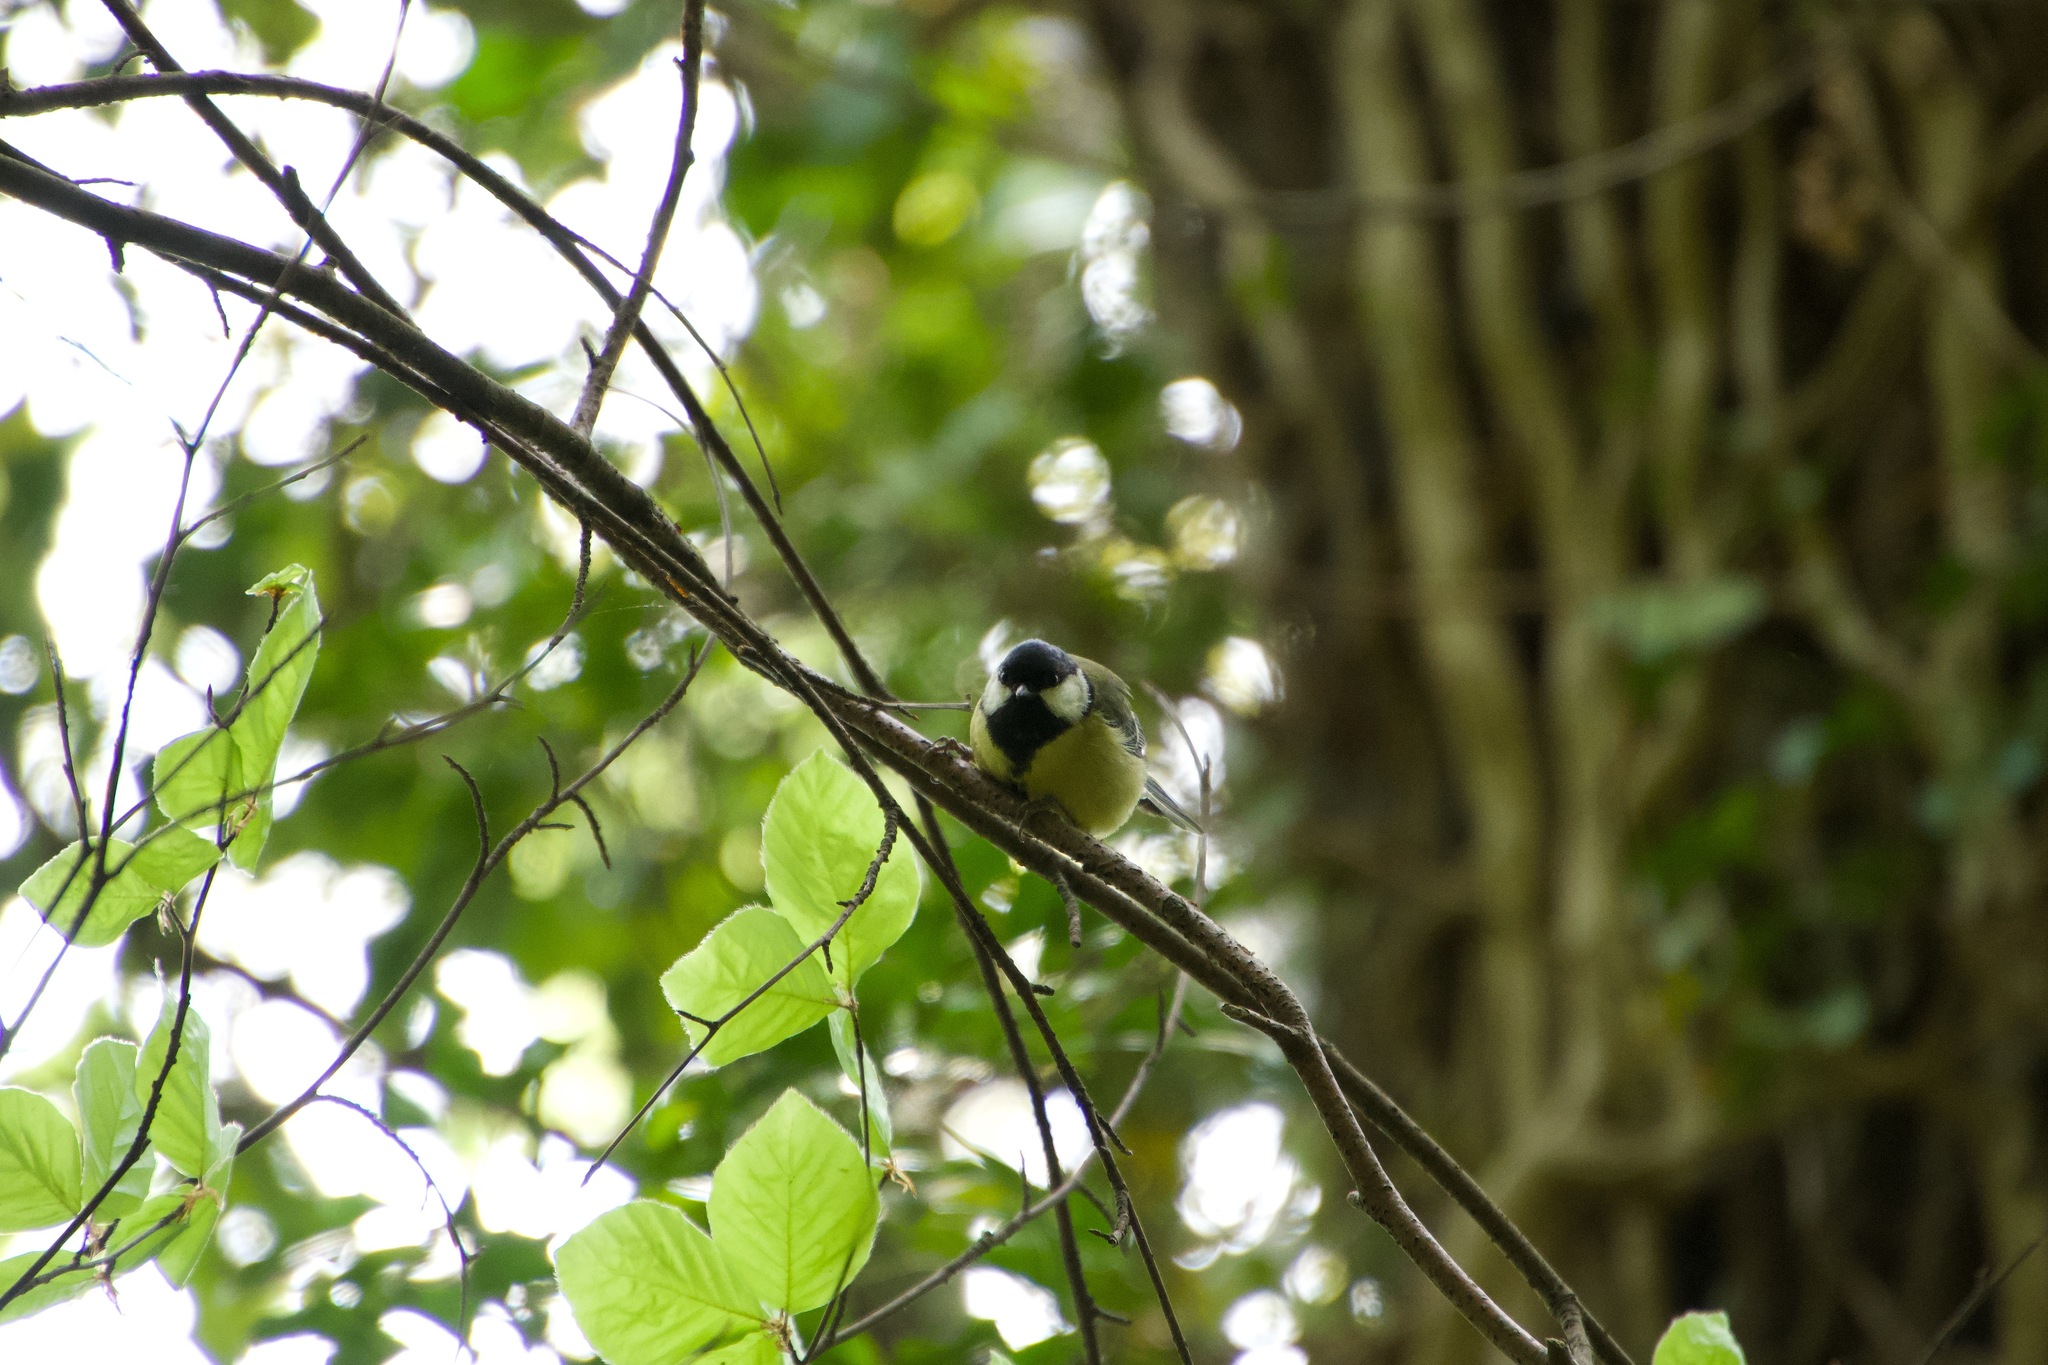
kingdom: Animalia
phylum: Chordata
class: Aves
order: Passeriformes
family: Paridae
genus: Parus
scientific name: Parus major
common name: Great tit
